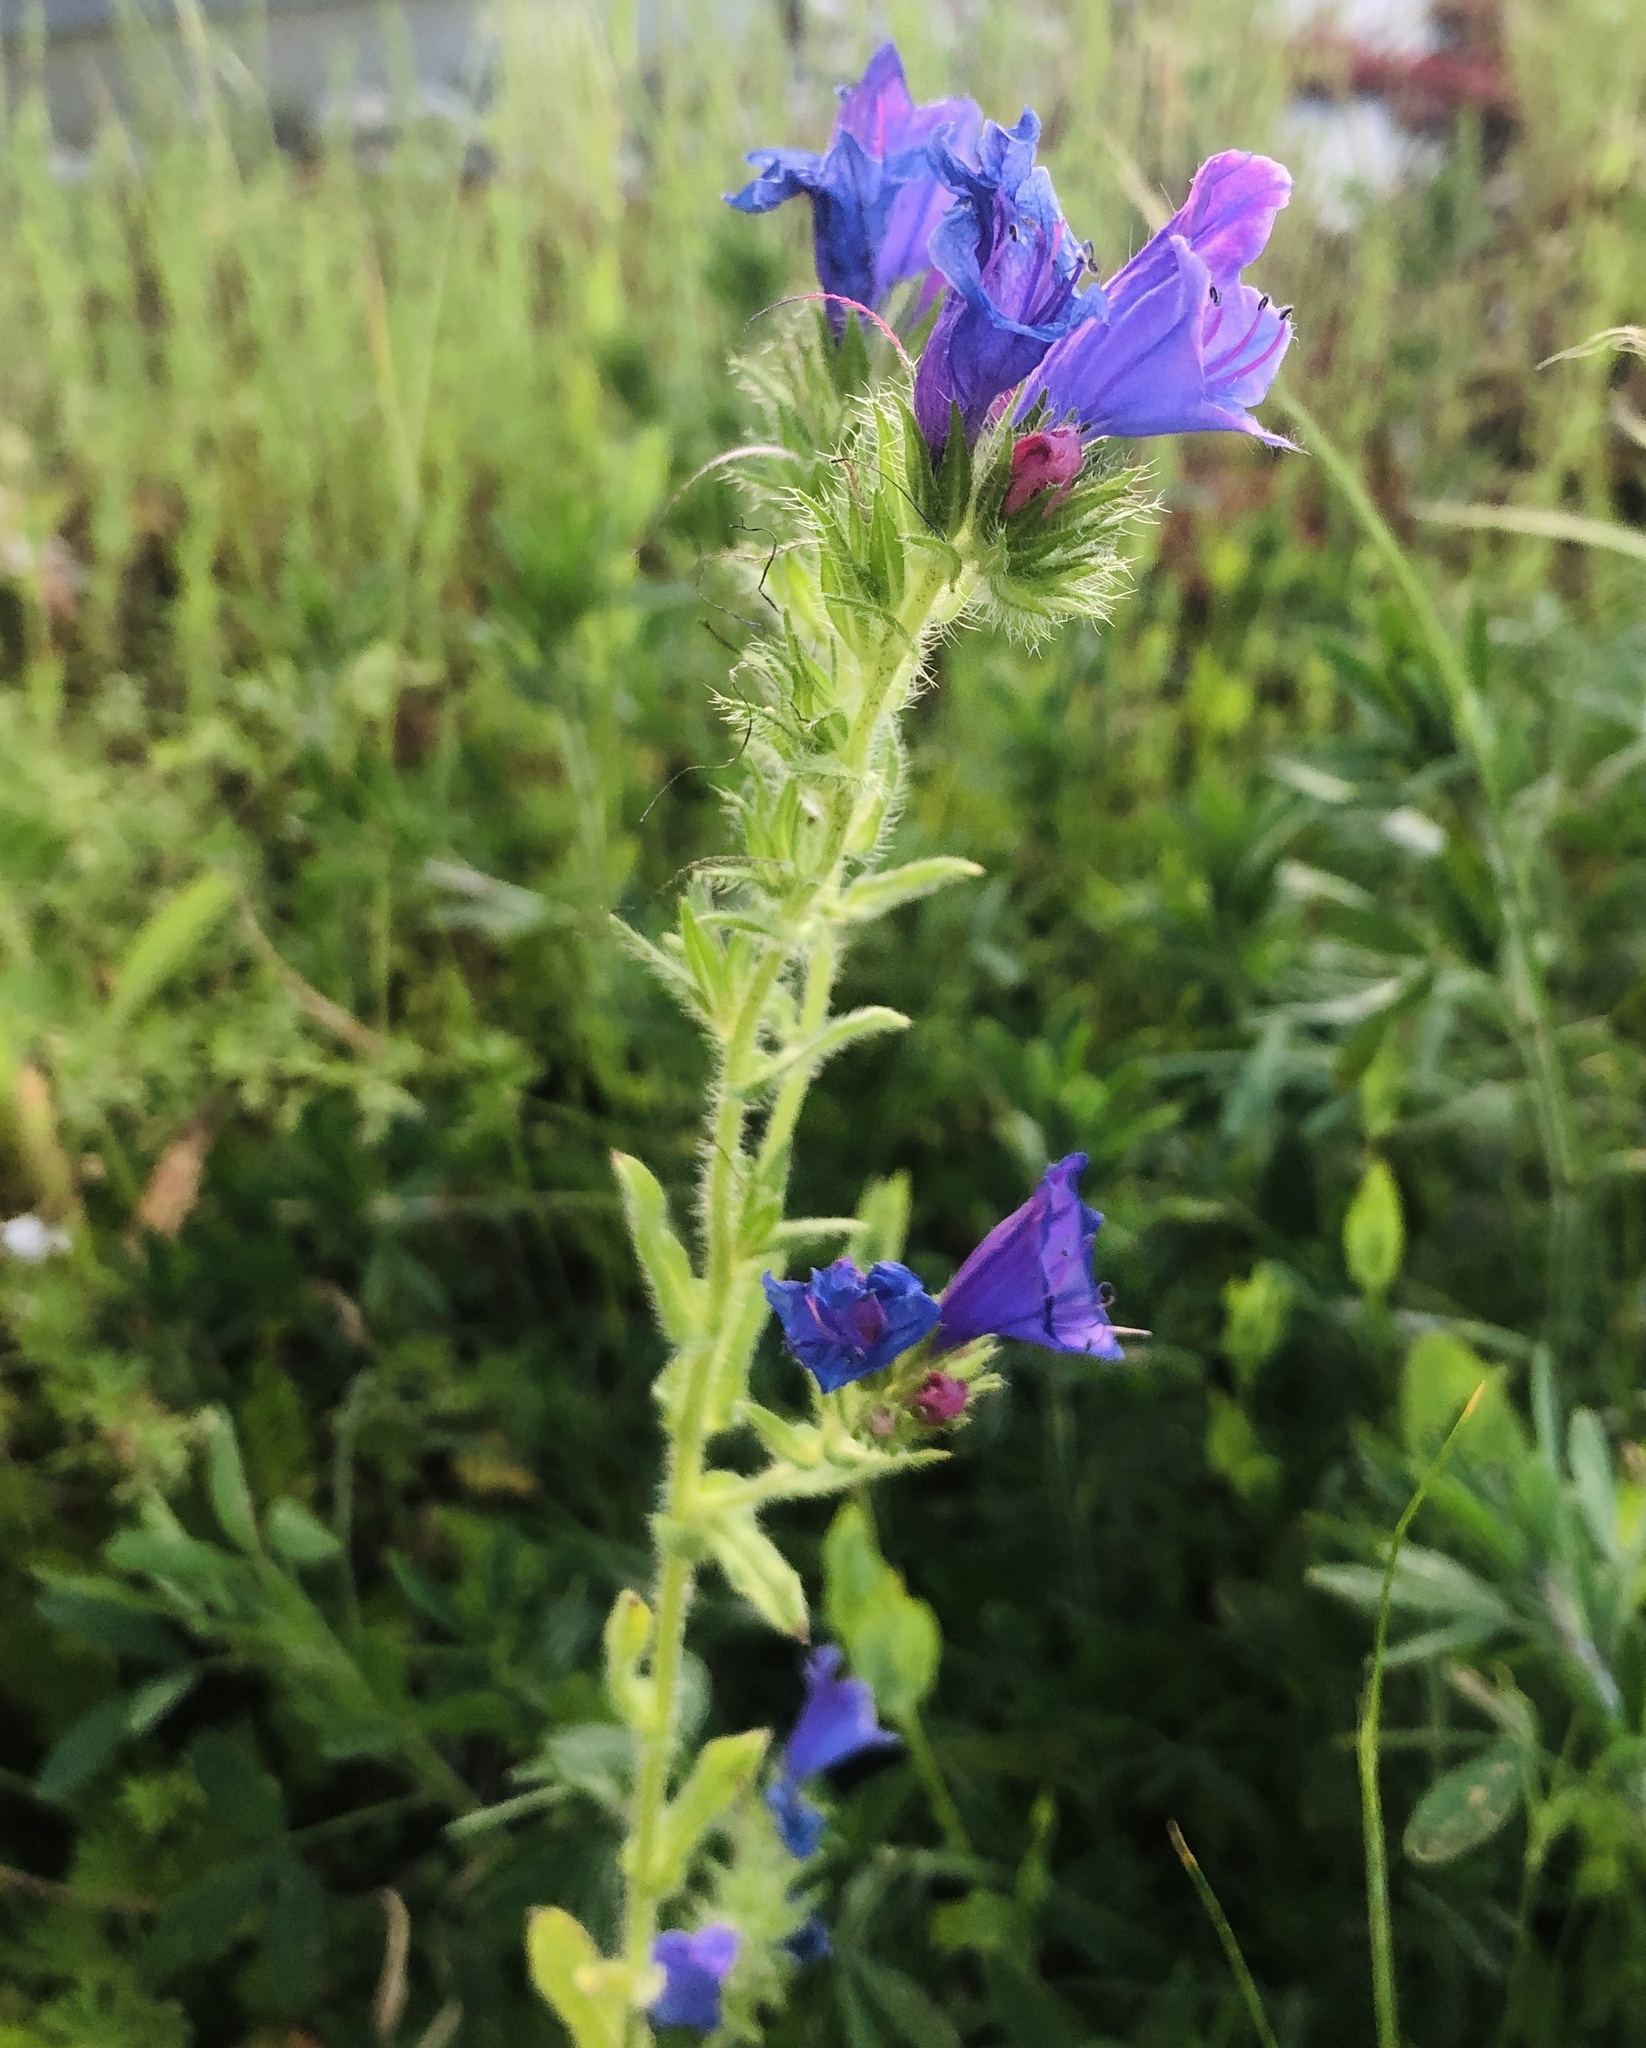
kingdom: Plantae
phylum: Tracheophyta
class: Magnoliopsida
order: Boraginales
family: Boraginaceae
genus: Echium
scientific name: Echium plantagineum
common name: Purple viper's-bugloss
